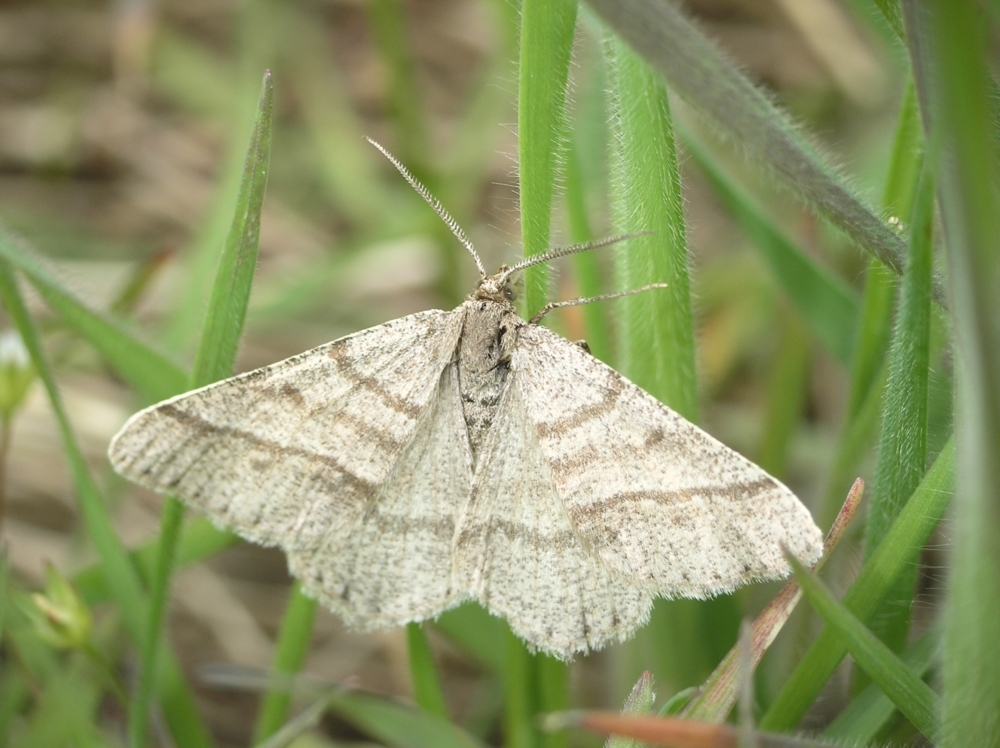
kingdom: Animalia
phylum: Arthropoda
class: Insecta
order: Lepidoptera
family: Geometridae
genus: Tephrina
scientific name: Tephrina murinaria
